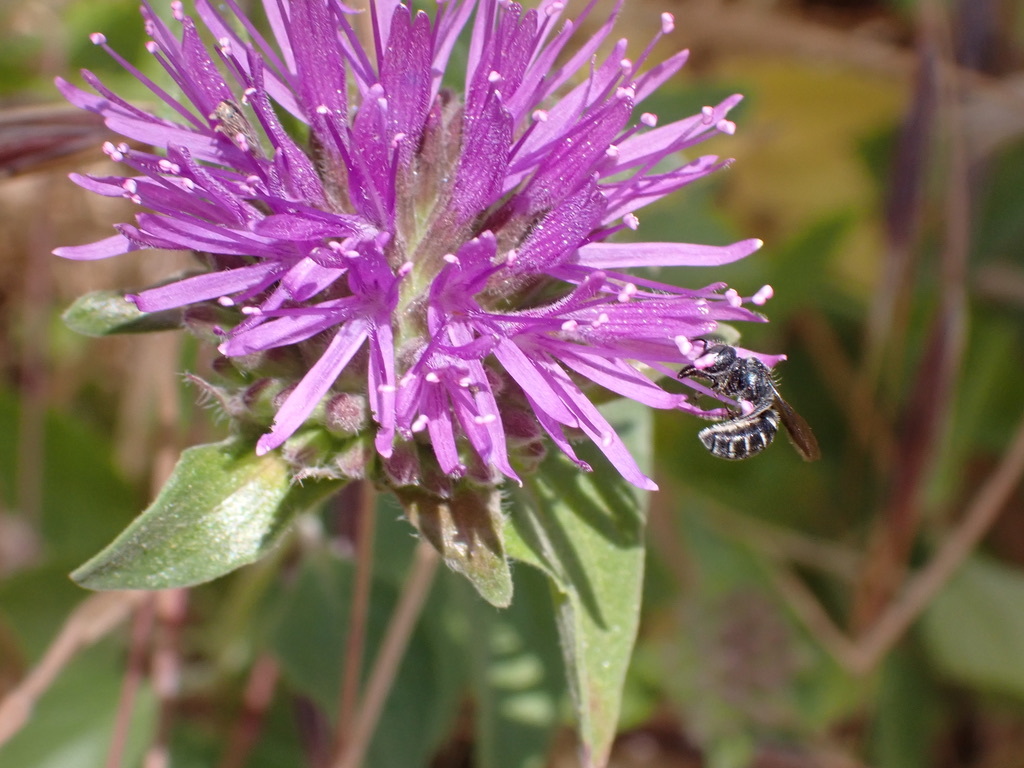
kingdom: Plantae
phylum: Tracheophyta
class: Magnoliopsida
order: Lamiales
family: Lamiaceae
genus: Monardella
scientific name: Monardella odoratissima
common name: Pacific monardella
